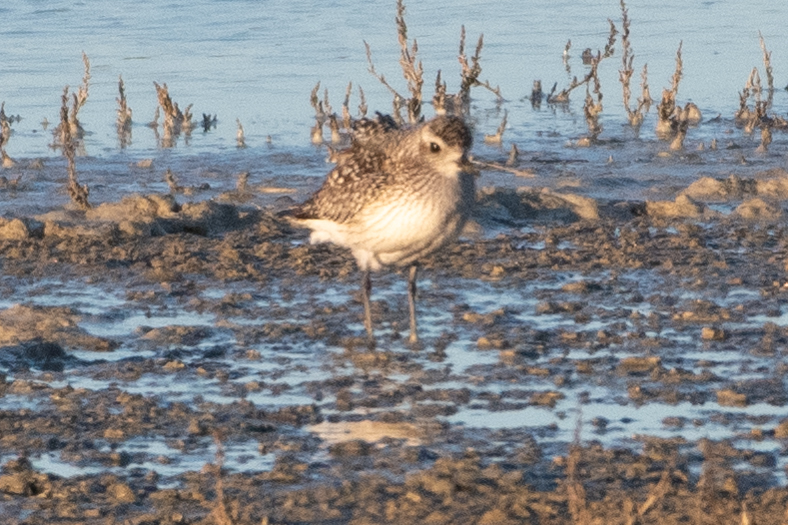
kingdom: Animalia
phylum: Chordata
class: Aves
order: Charadriiformes
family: Charadriidae
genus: Pluvialis
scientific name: Pluvialis squatarola
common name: Grey plover
